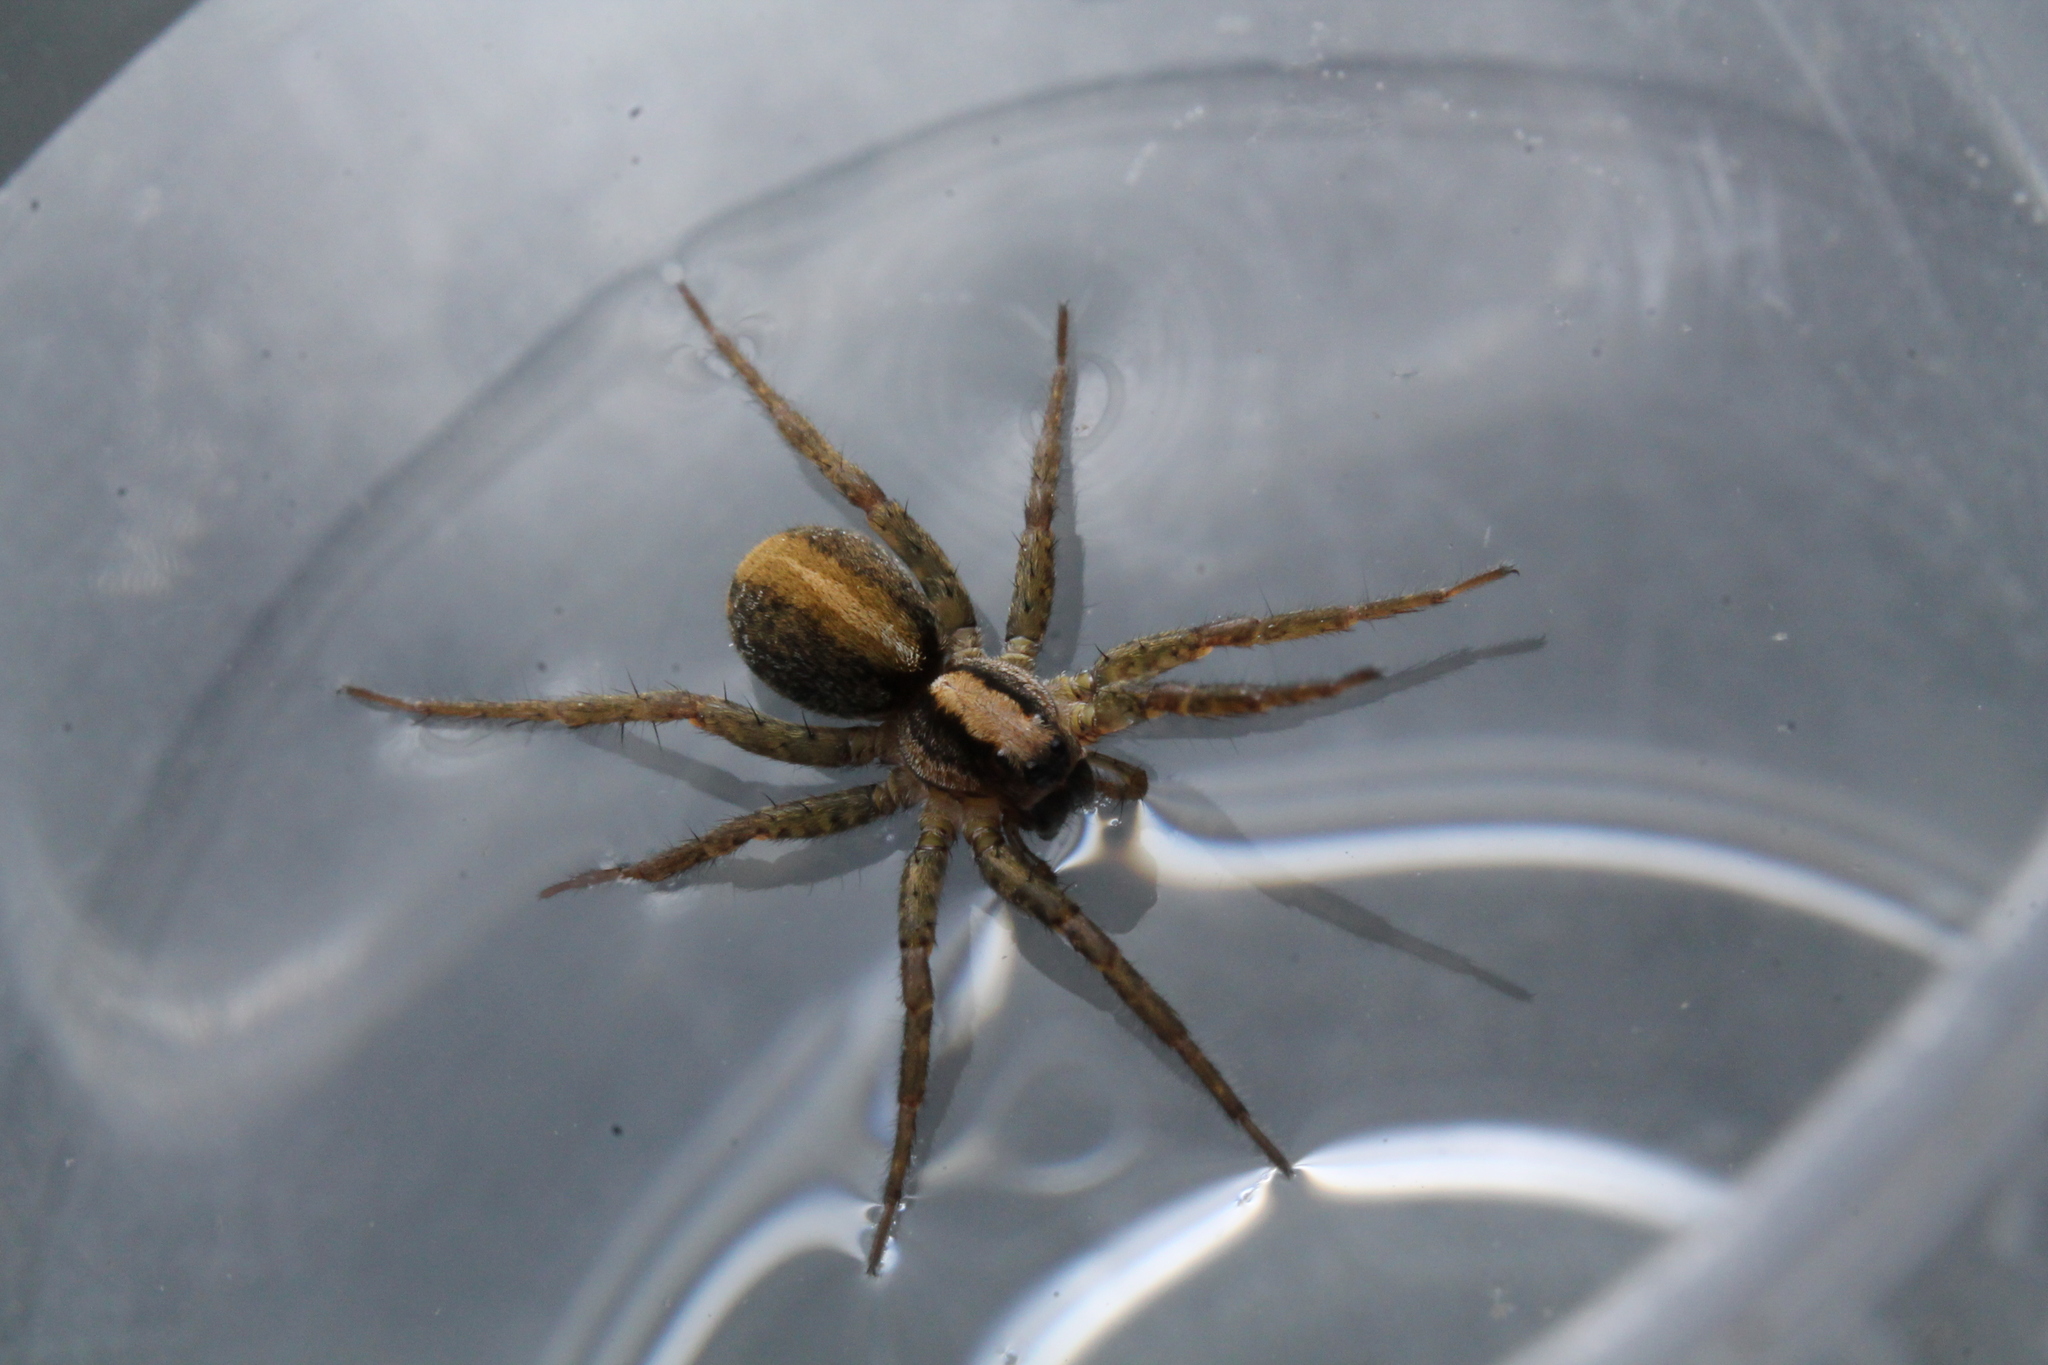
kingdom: Animalia
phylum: Arthropoda
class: Arachnida
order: Araneae
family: Lycosidae
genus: Anoteropsis
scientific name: Anoteropsis hilaris
